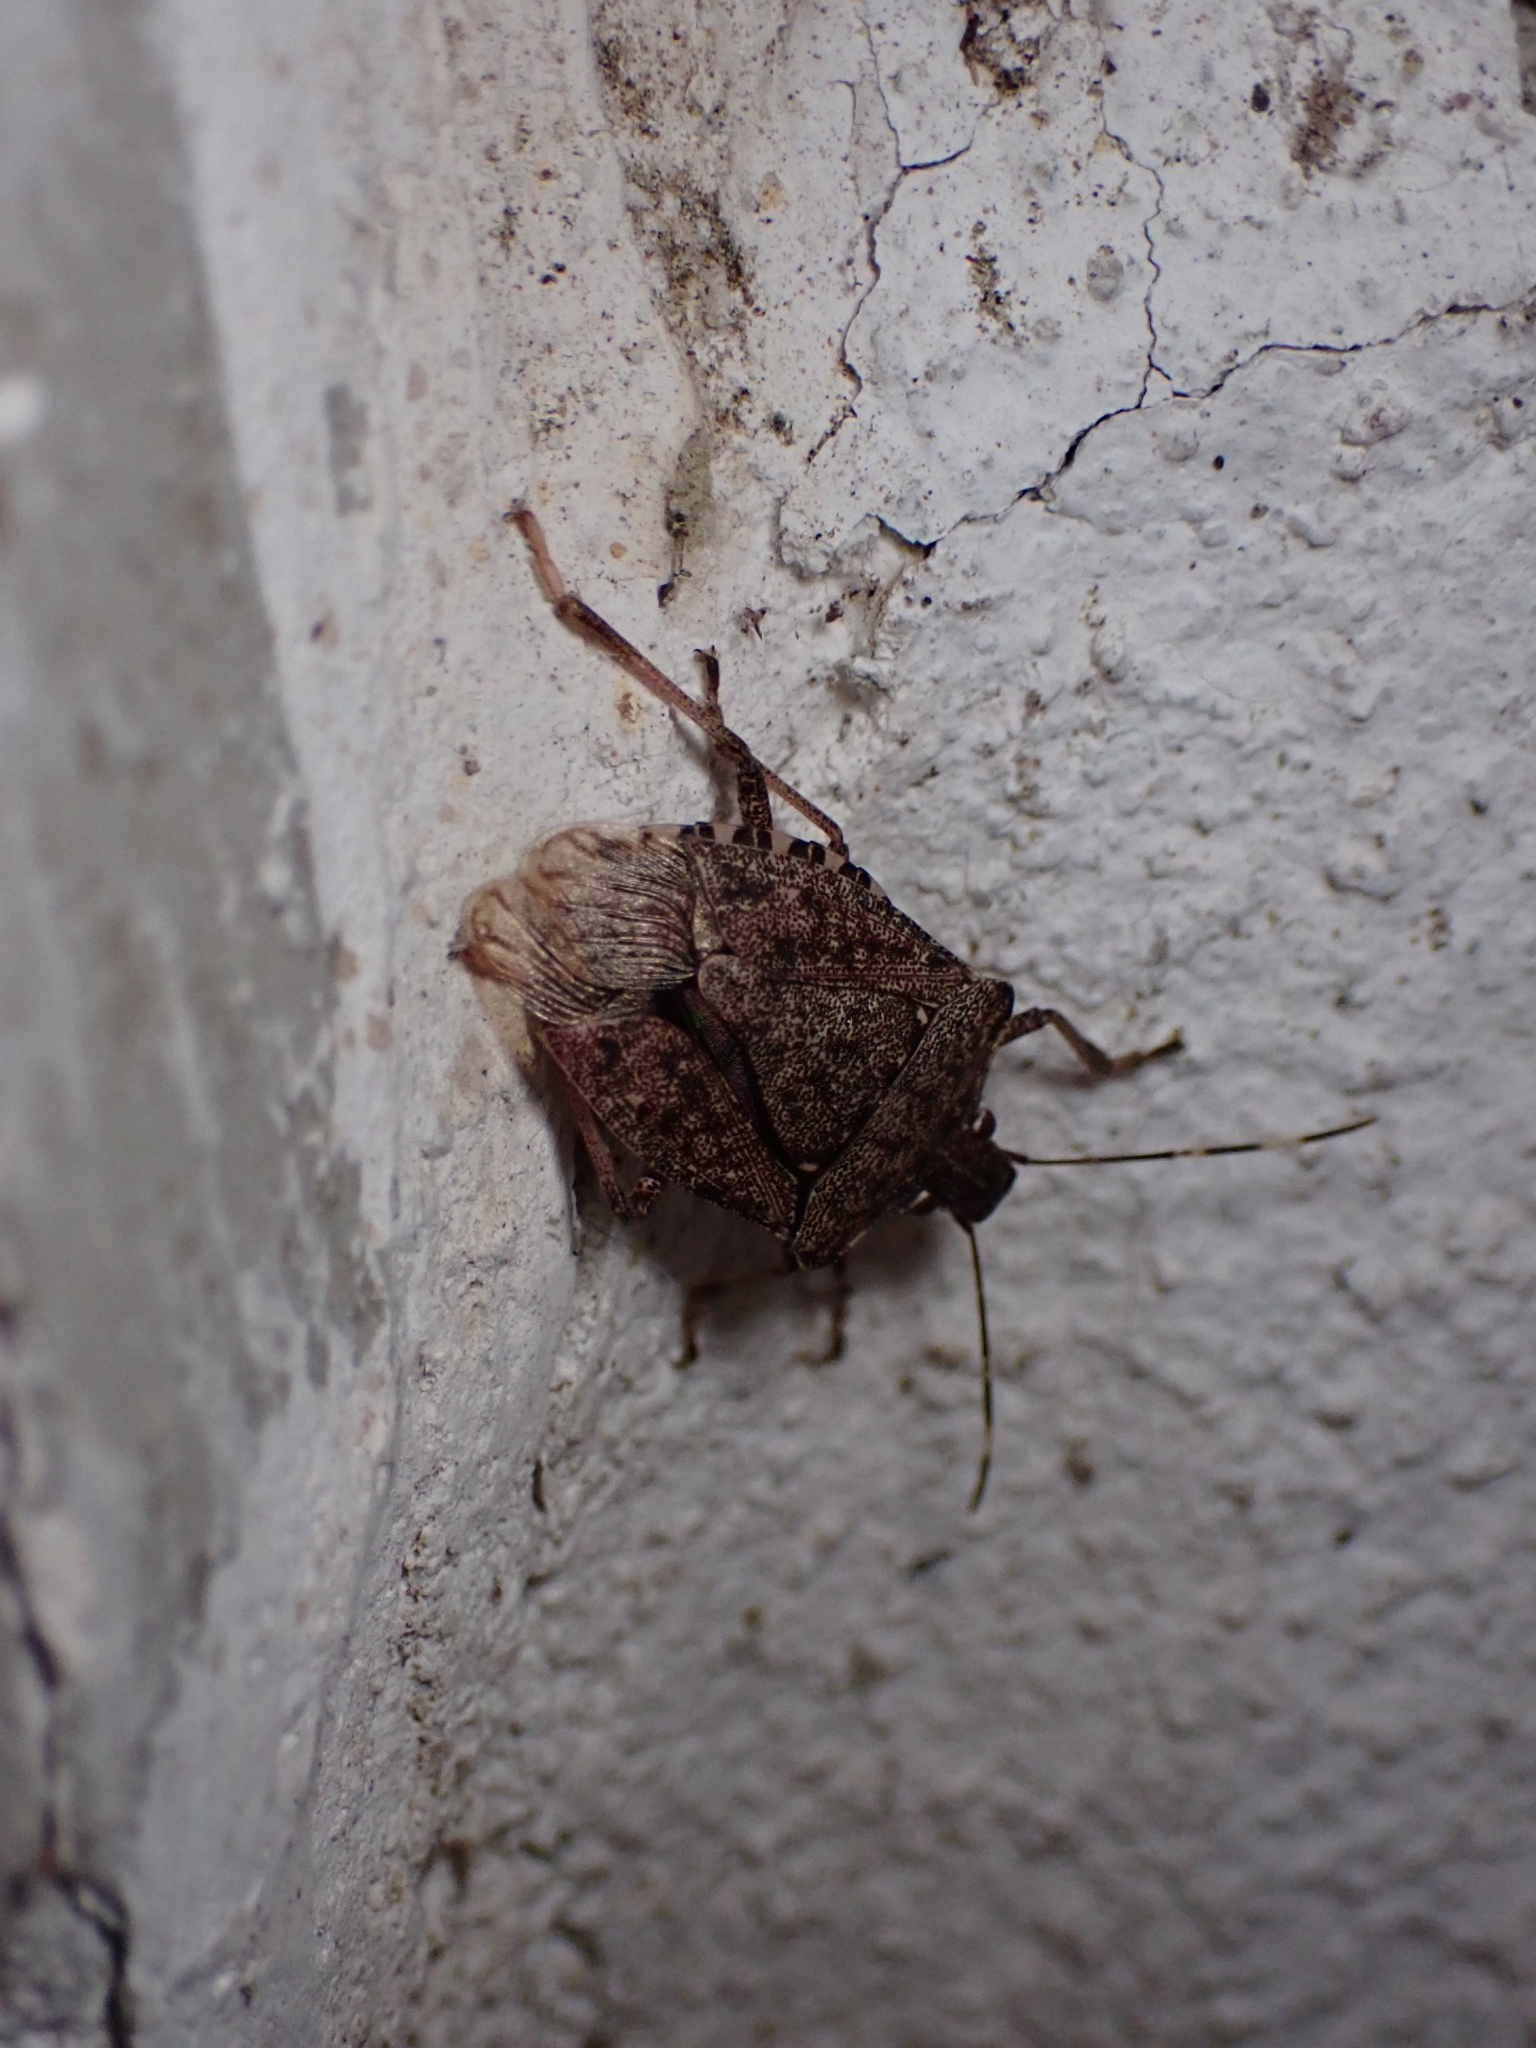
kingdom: Animalia
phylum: Arthropoda
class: Insecta
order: Hemiptera
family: Pentatomidae
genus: Halyomorpha
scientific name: Halyomorpha halys
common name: Brown marmorated stink bug
